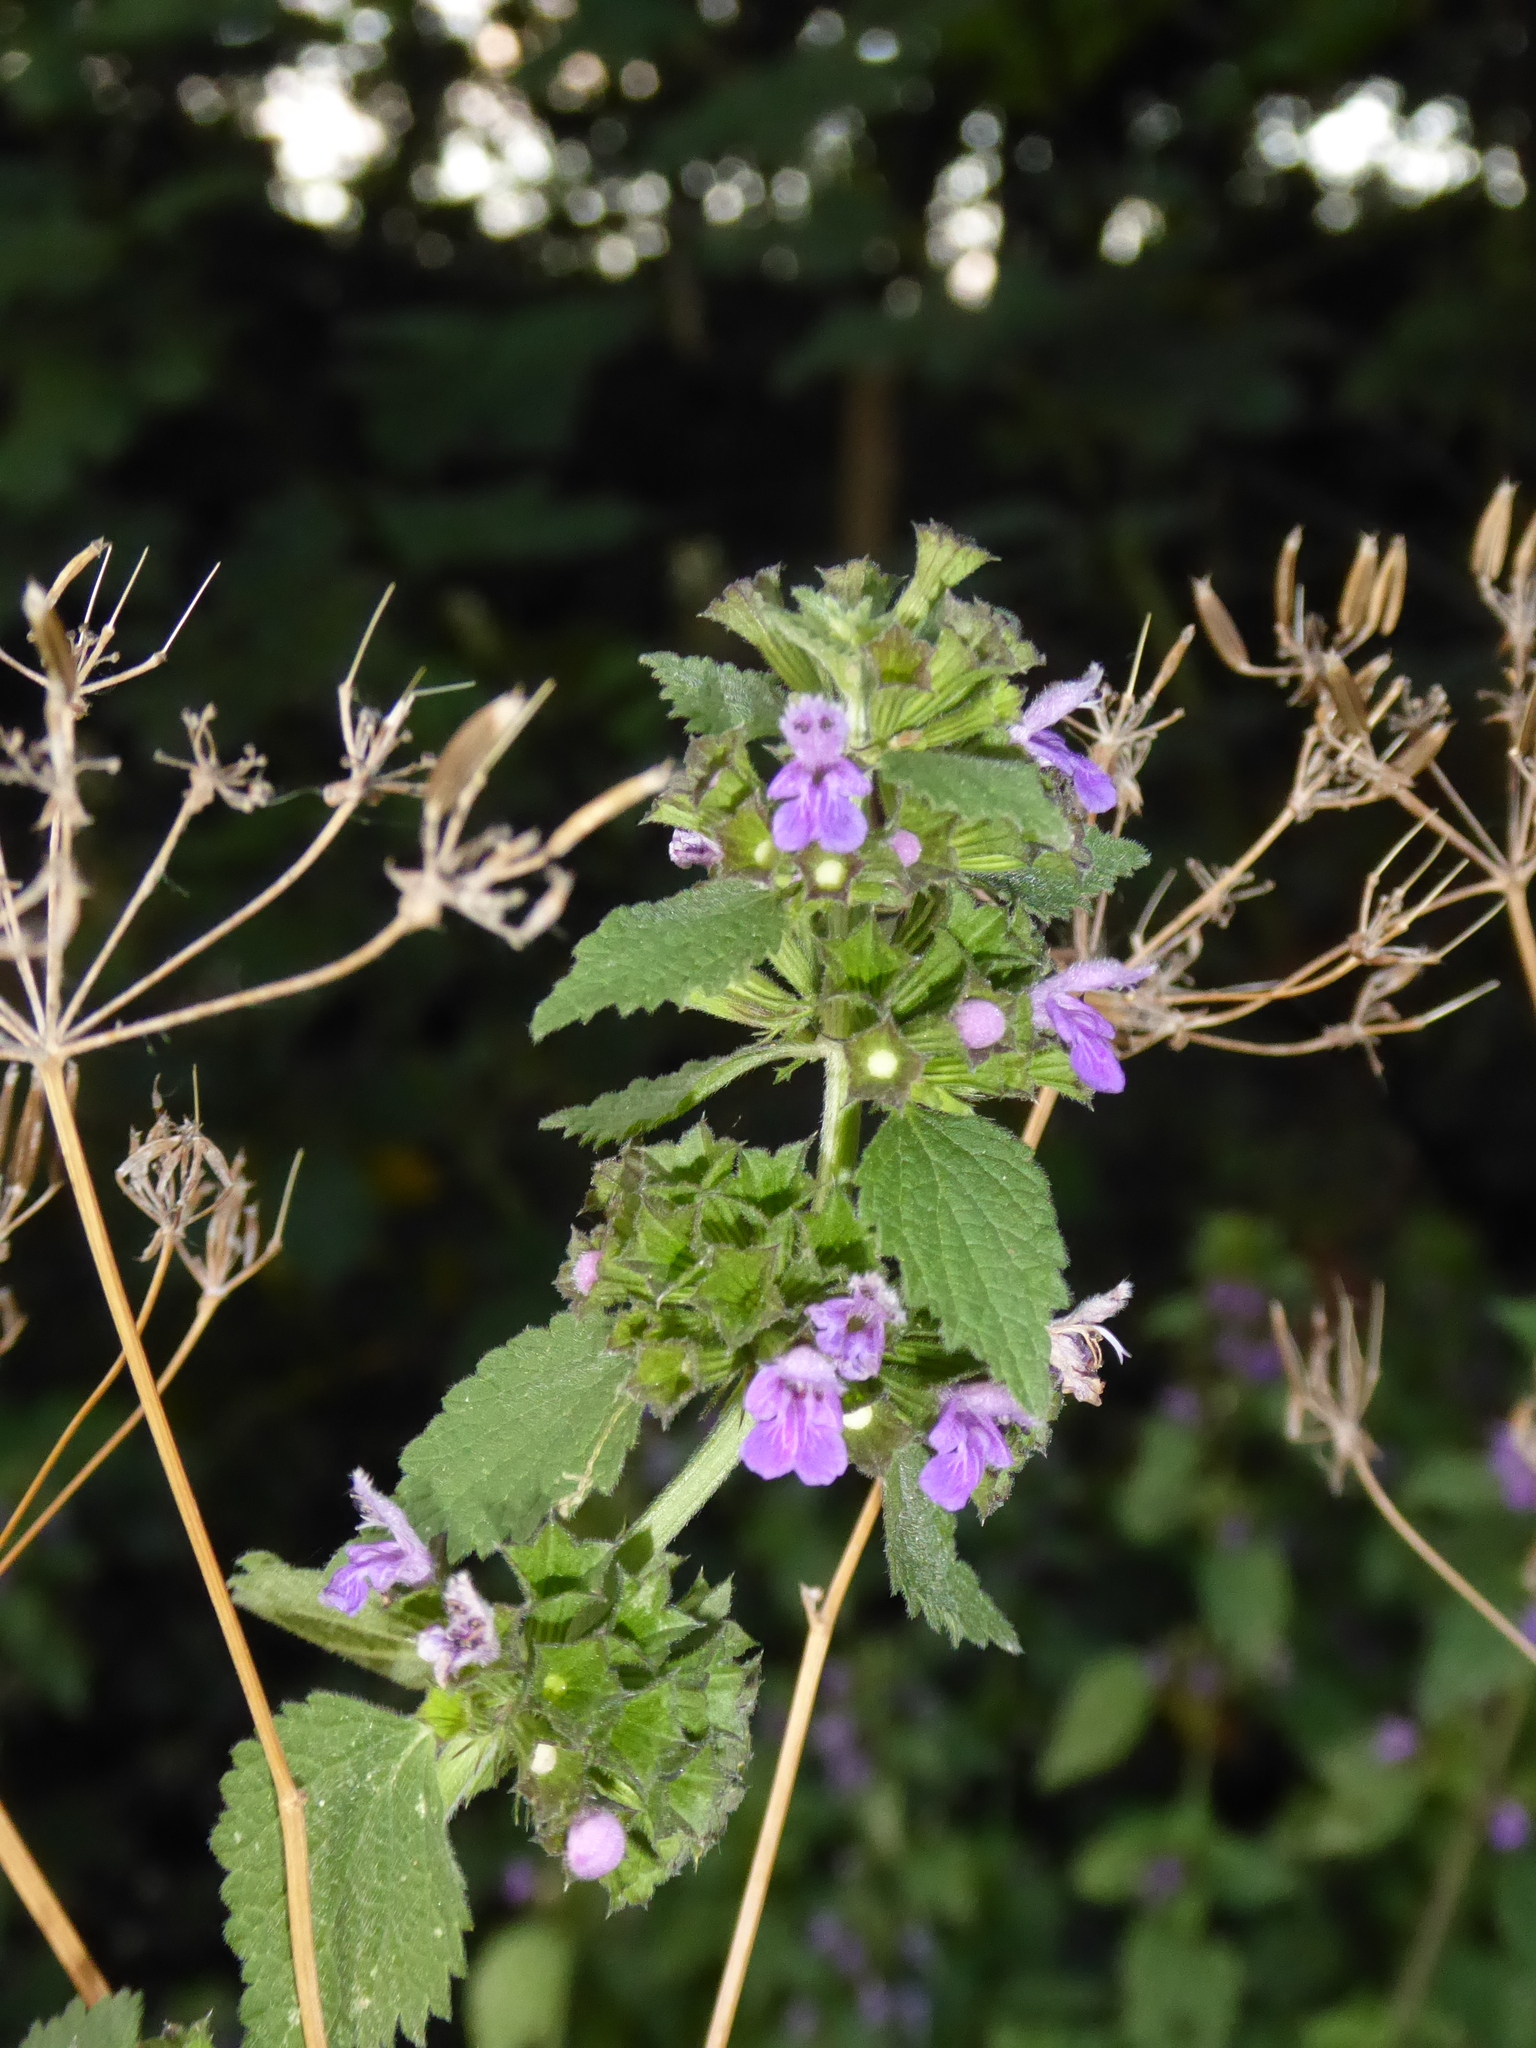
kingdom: Plantae
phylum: Tracheophyta
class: Magnoliopsida
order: Lamiales
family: Lamiaceae
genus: Ballota
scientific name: Ballota nigra
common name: Black horehound
